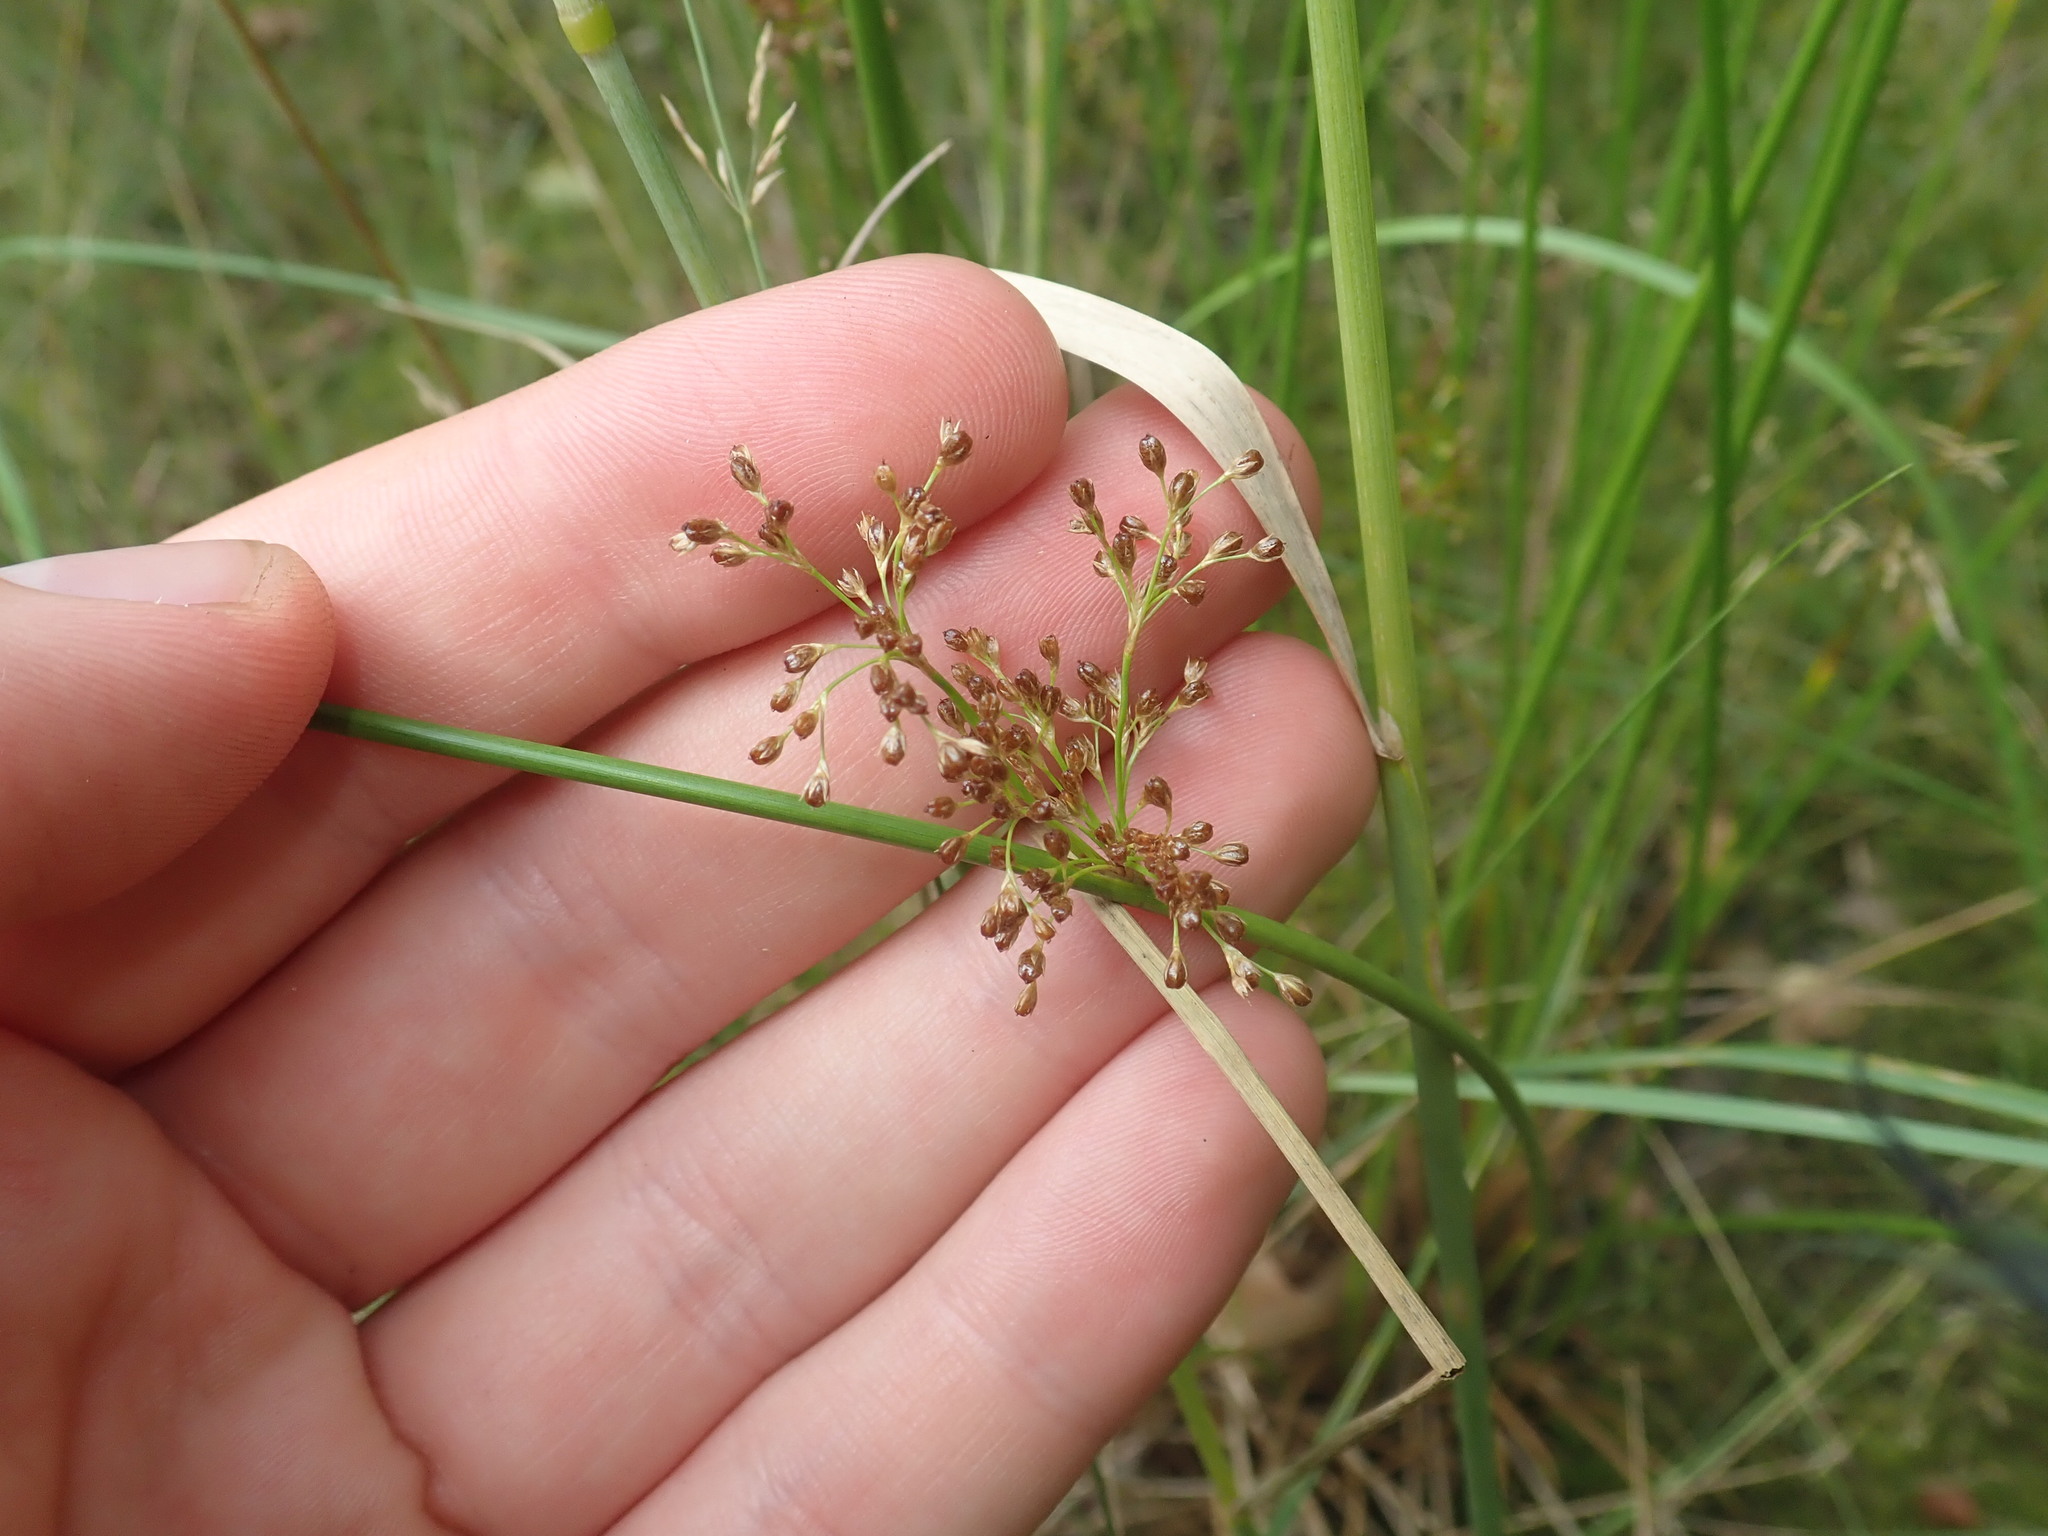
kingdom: Plantae
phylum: Tracheophyta
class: Liliopsida
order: Poales
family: Juncaceae
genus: Juncus
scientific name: Juncus effusus
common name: Soft rush
